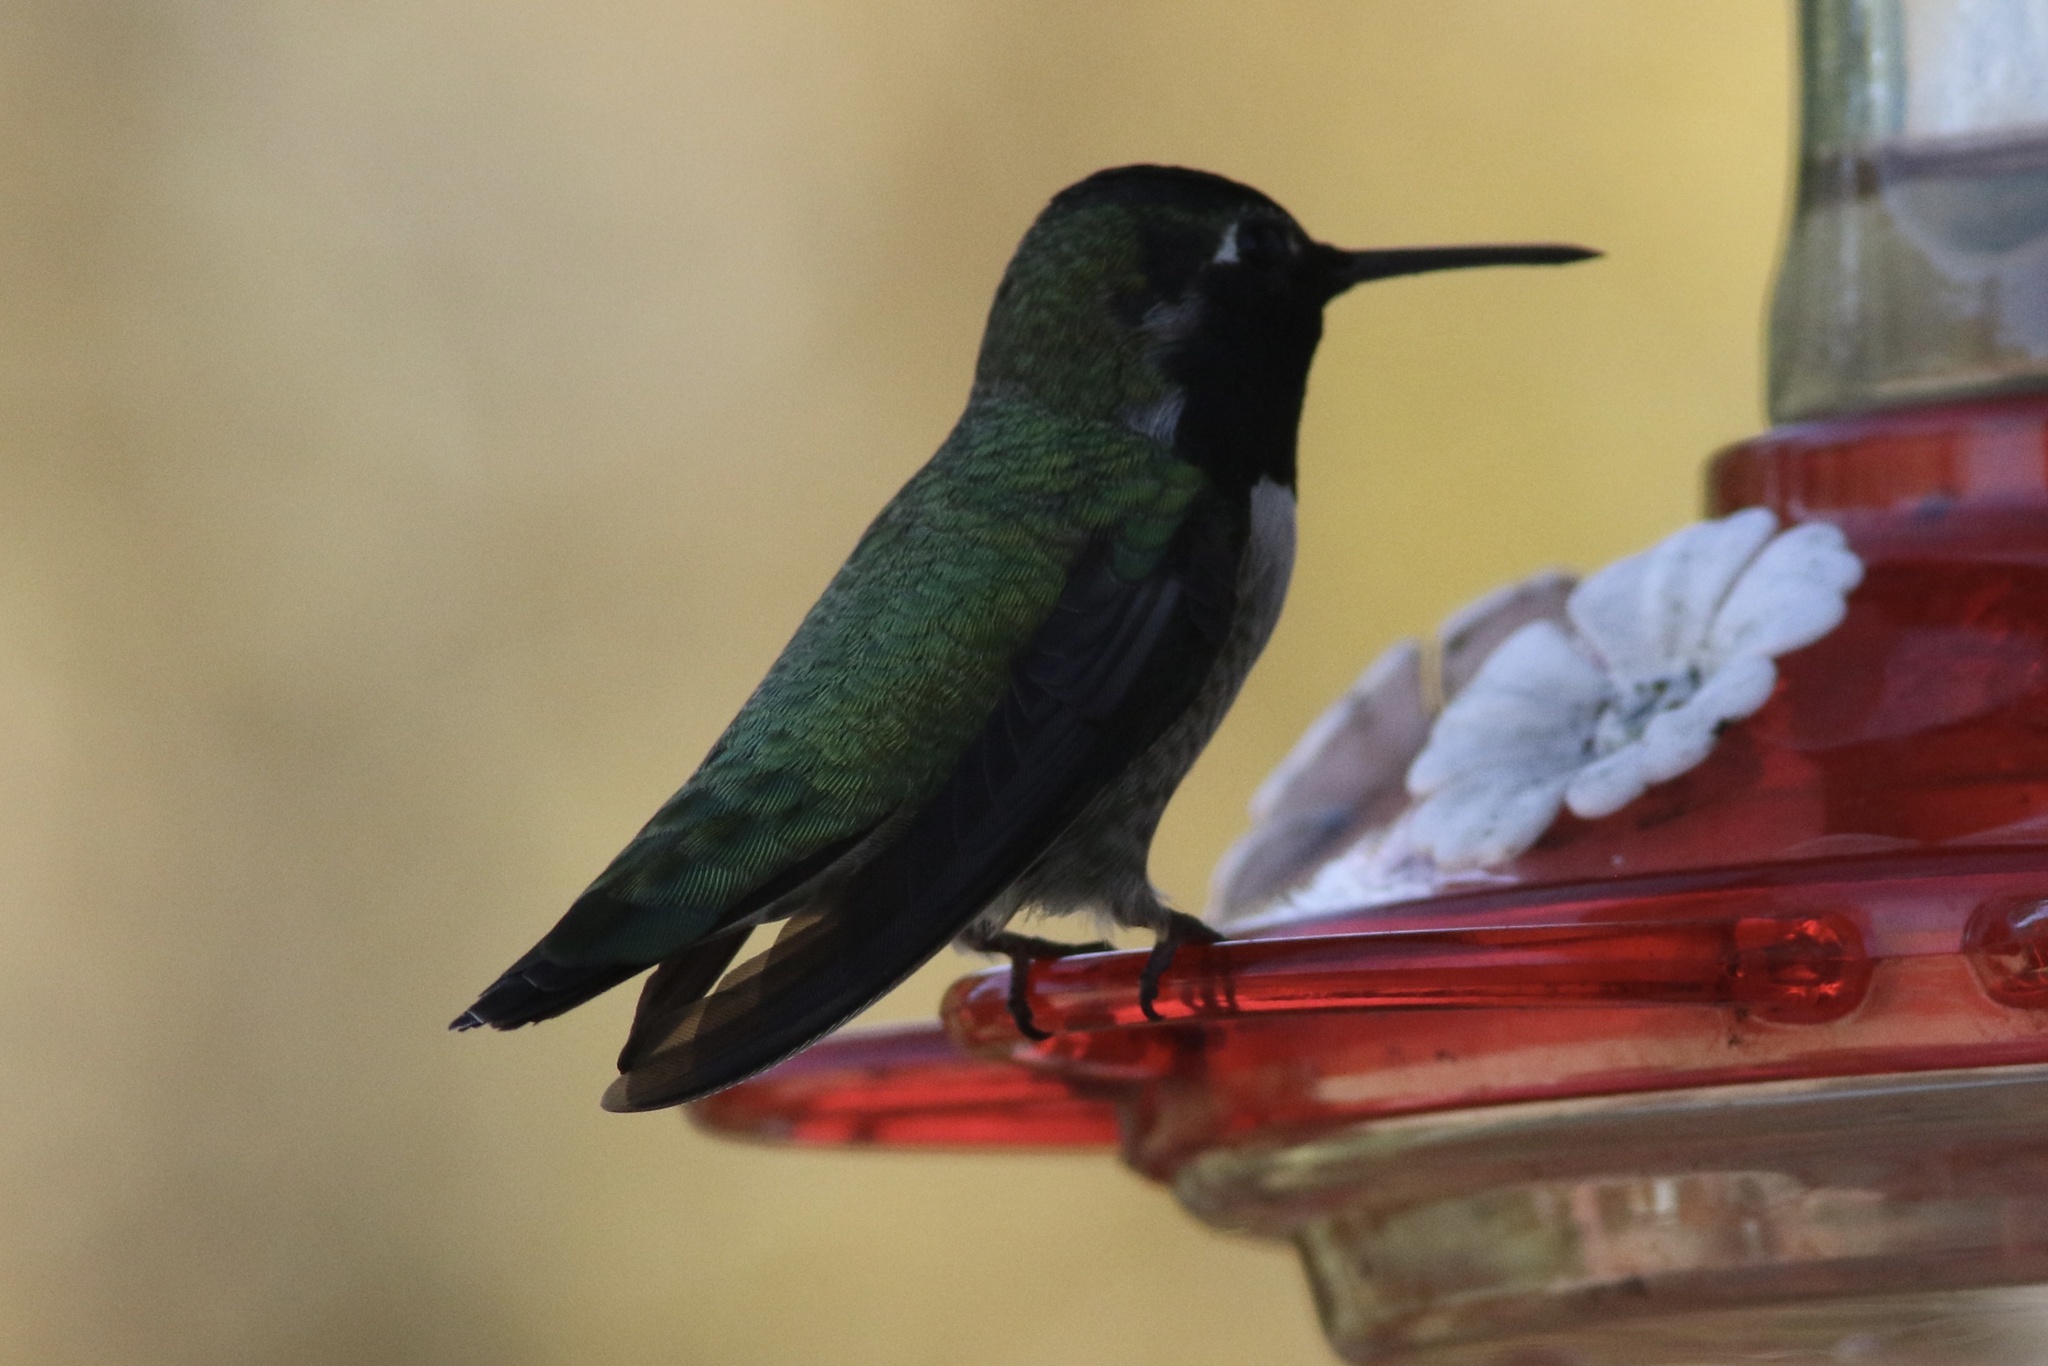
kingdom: Animalia
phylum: Chordata
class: Aves
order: Apodiformes
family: Trochilidae
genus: Calypte
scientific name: Calypte anna
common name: Anna's hummingbird
